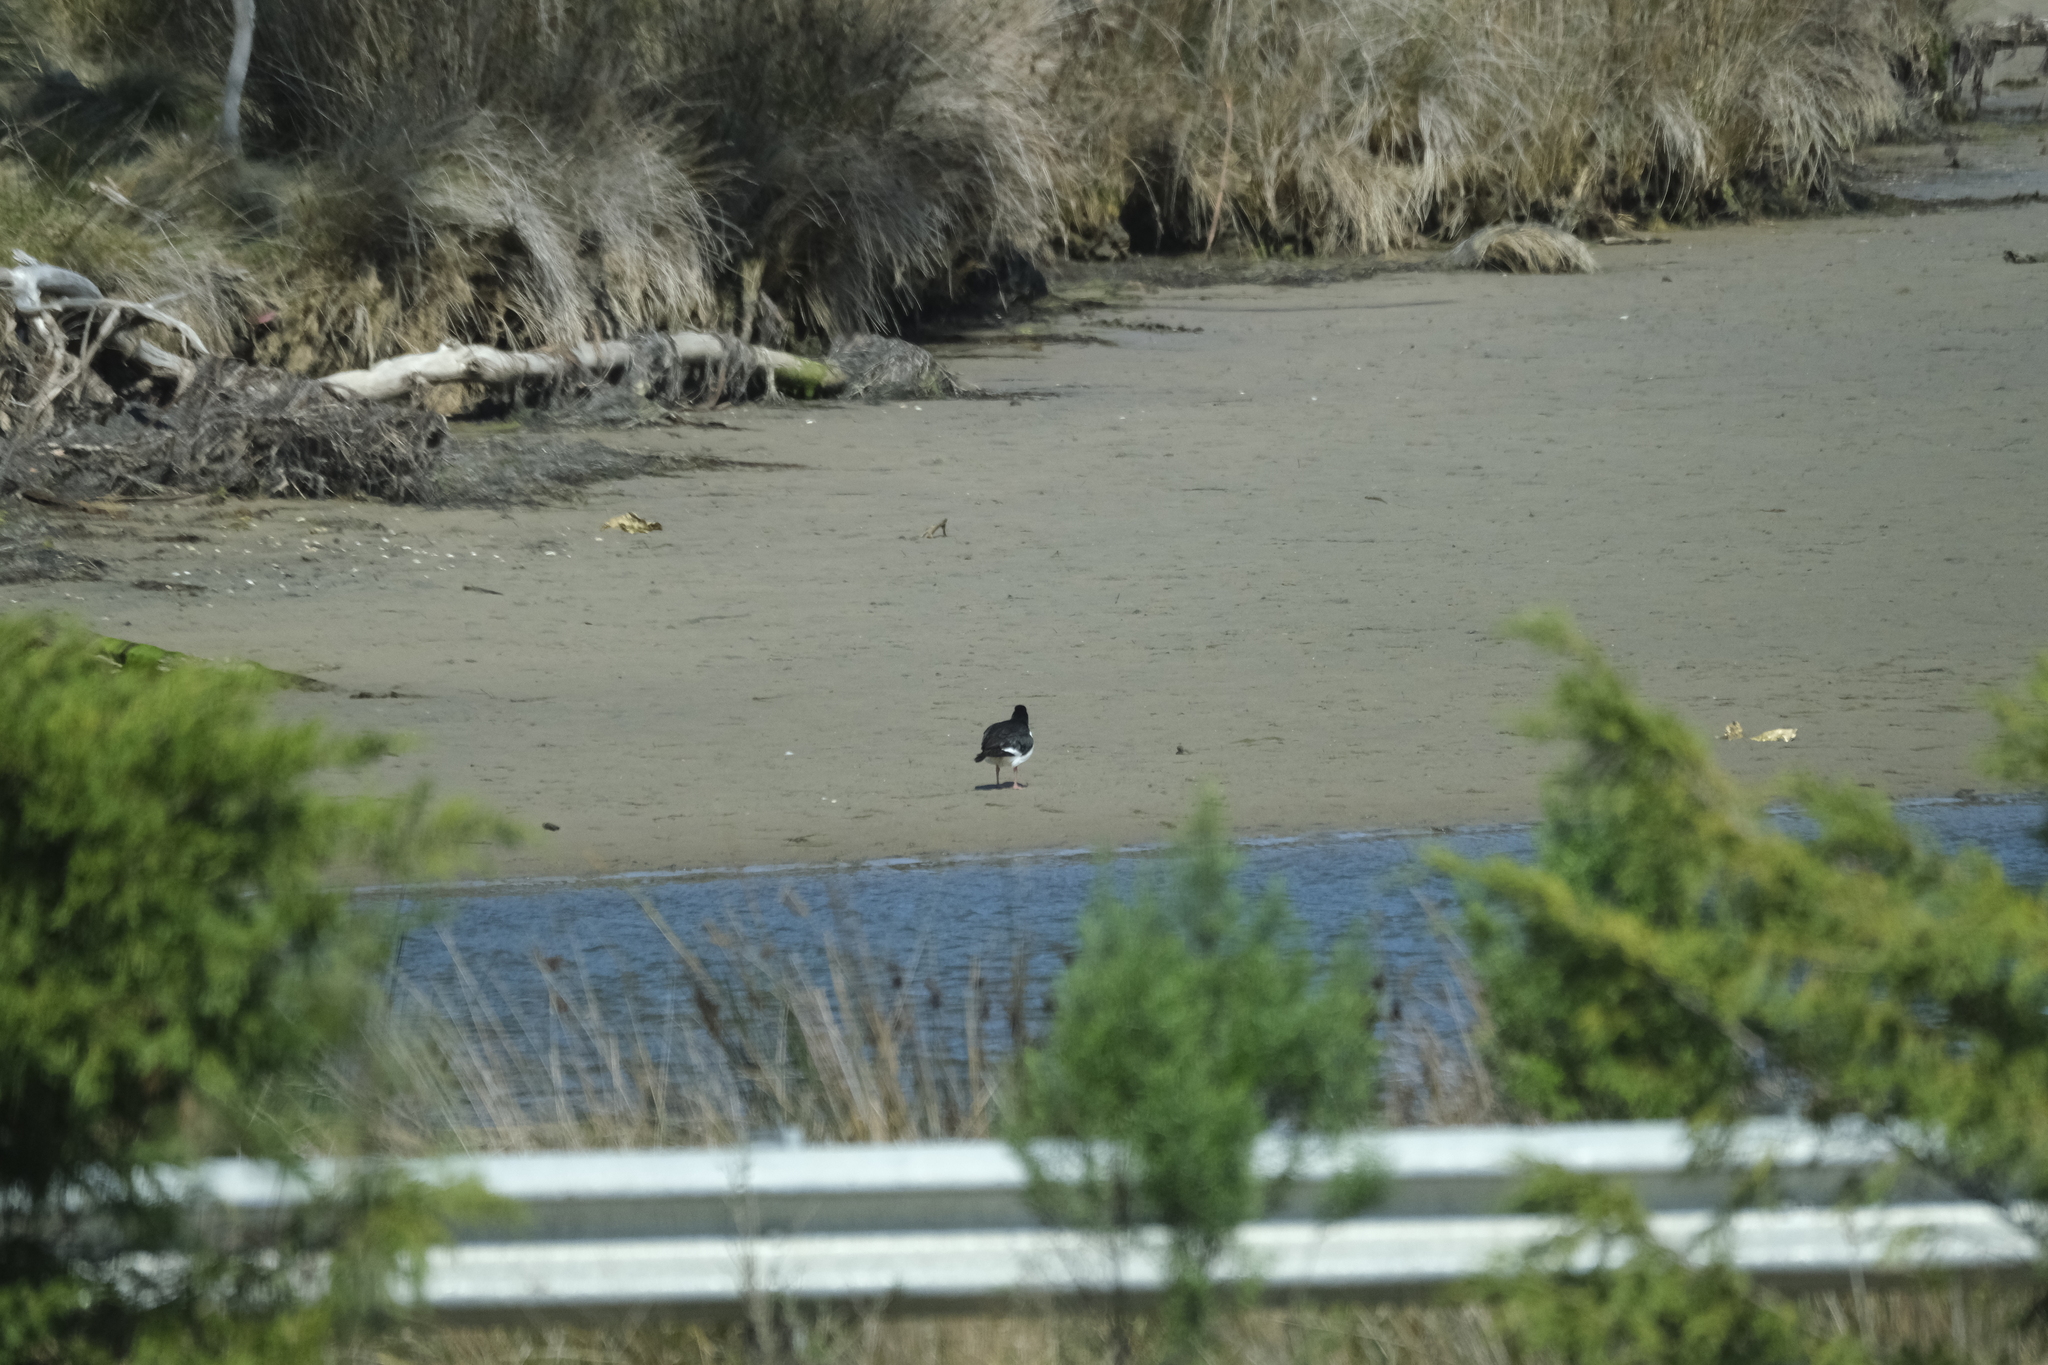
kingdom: Animalia
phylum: Chordata
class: Aves
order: Charadriiformes
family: Haematopodidae
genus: Haematopus
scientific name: Haematopus longirostris
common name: Pied oystercatcher
